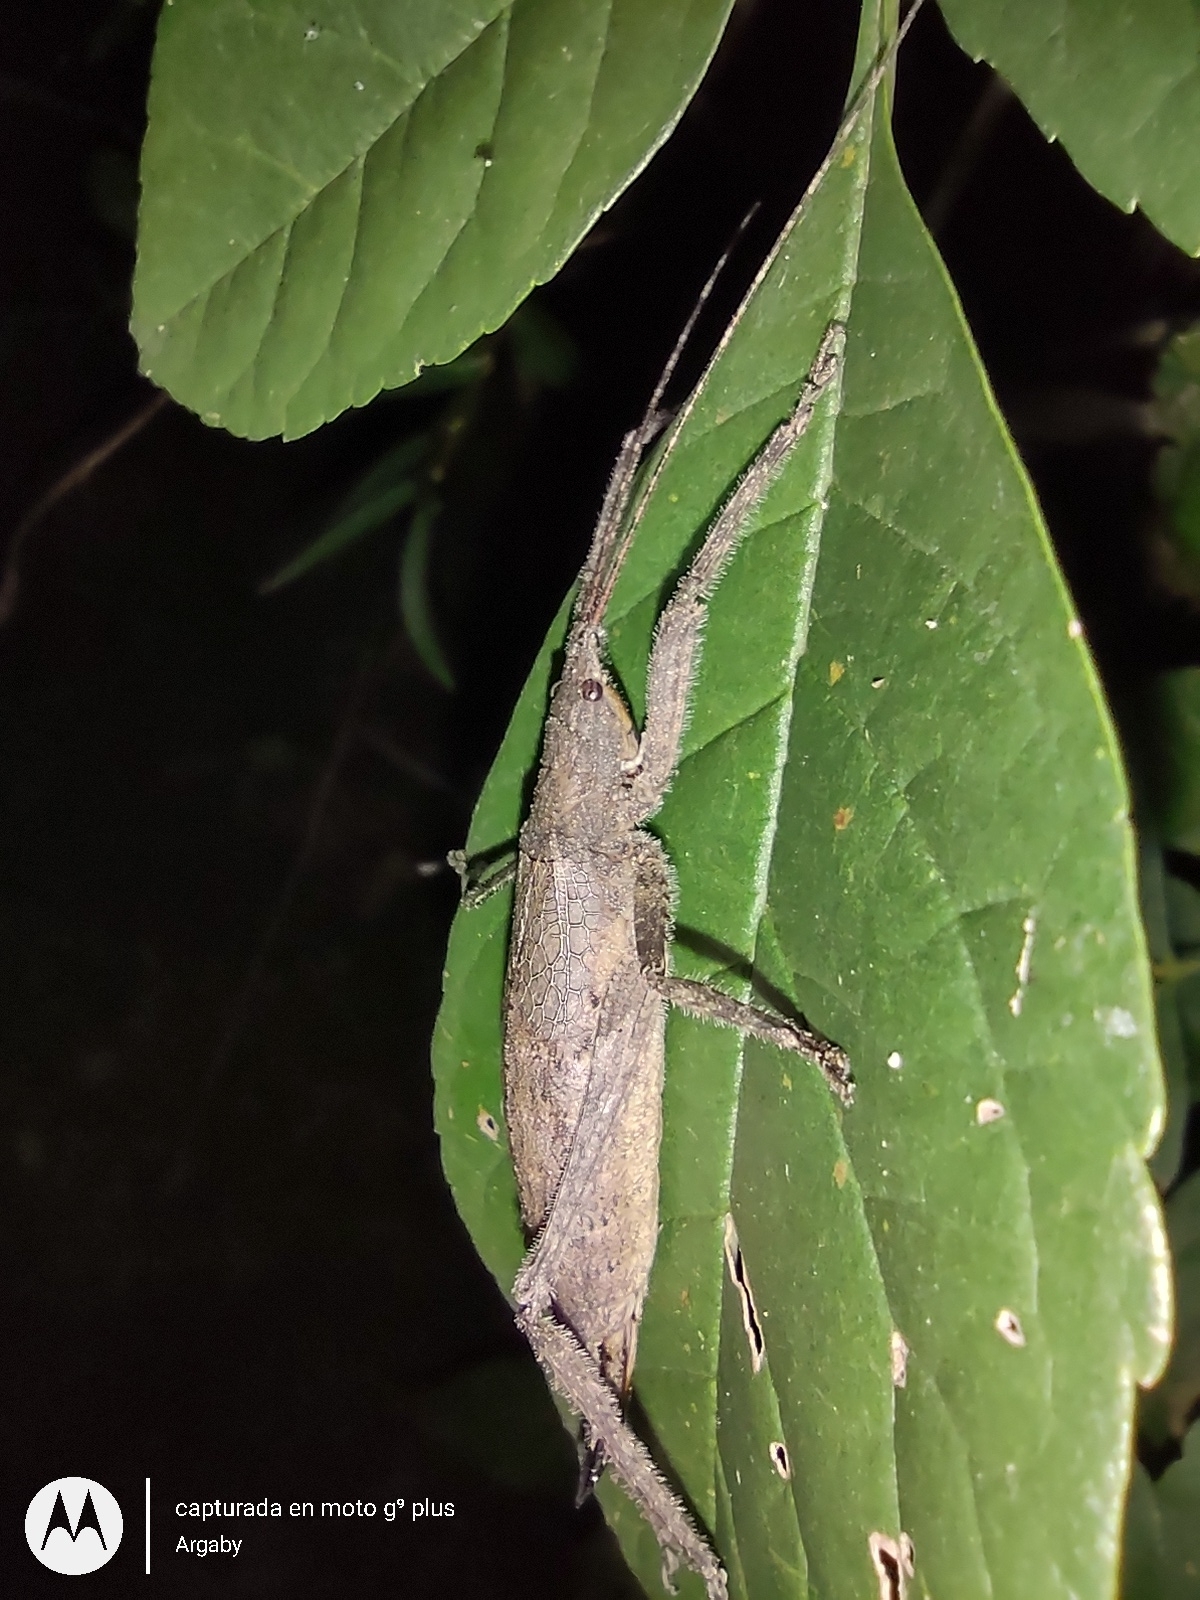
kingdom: Animalia
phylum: Arthropoda
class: Insecta
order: Orthoptera
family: Tettigoniidae
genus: Dasyscelus
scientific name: Dasyscelus normalis
